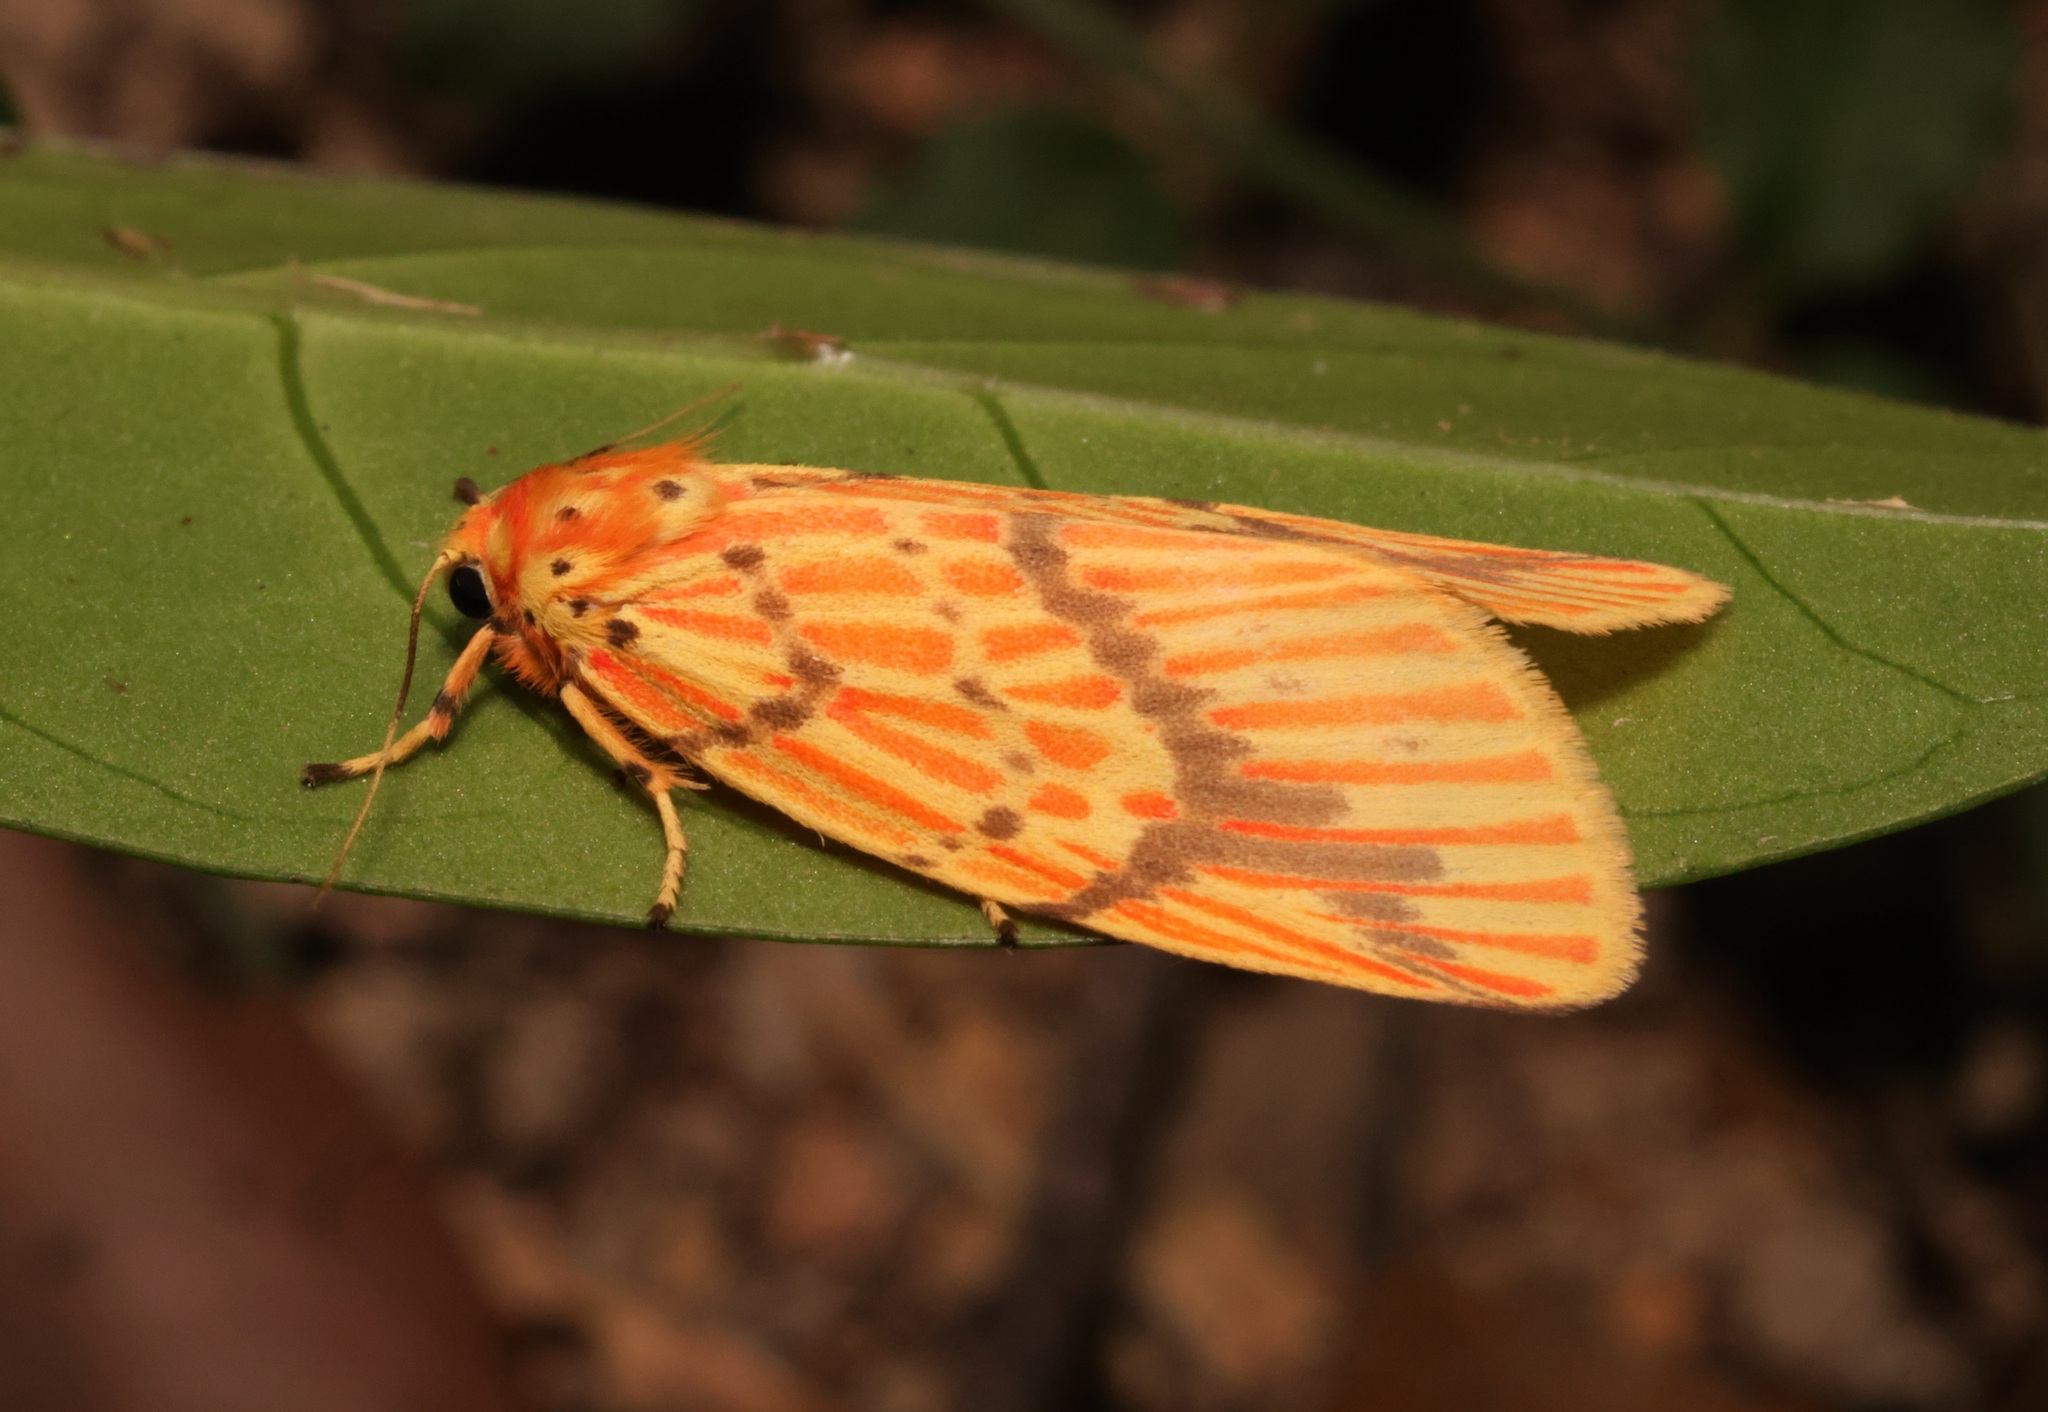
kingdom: Animalia
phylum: Arthropoda
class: Insecta
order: Lepidoptera
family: Erebidae
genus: Barsine
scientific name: Barsine striata
